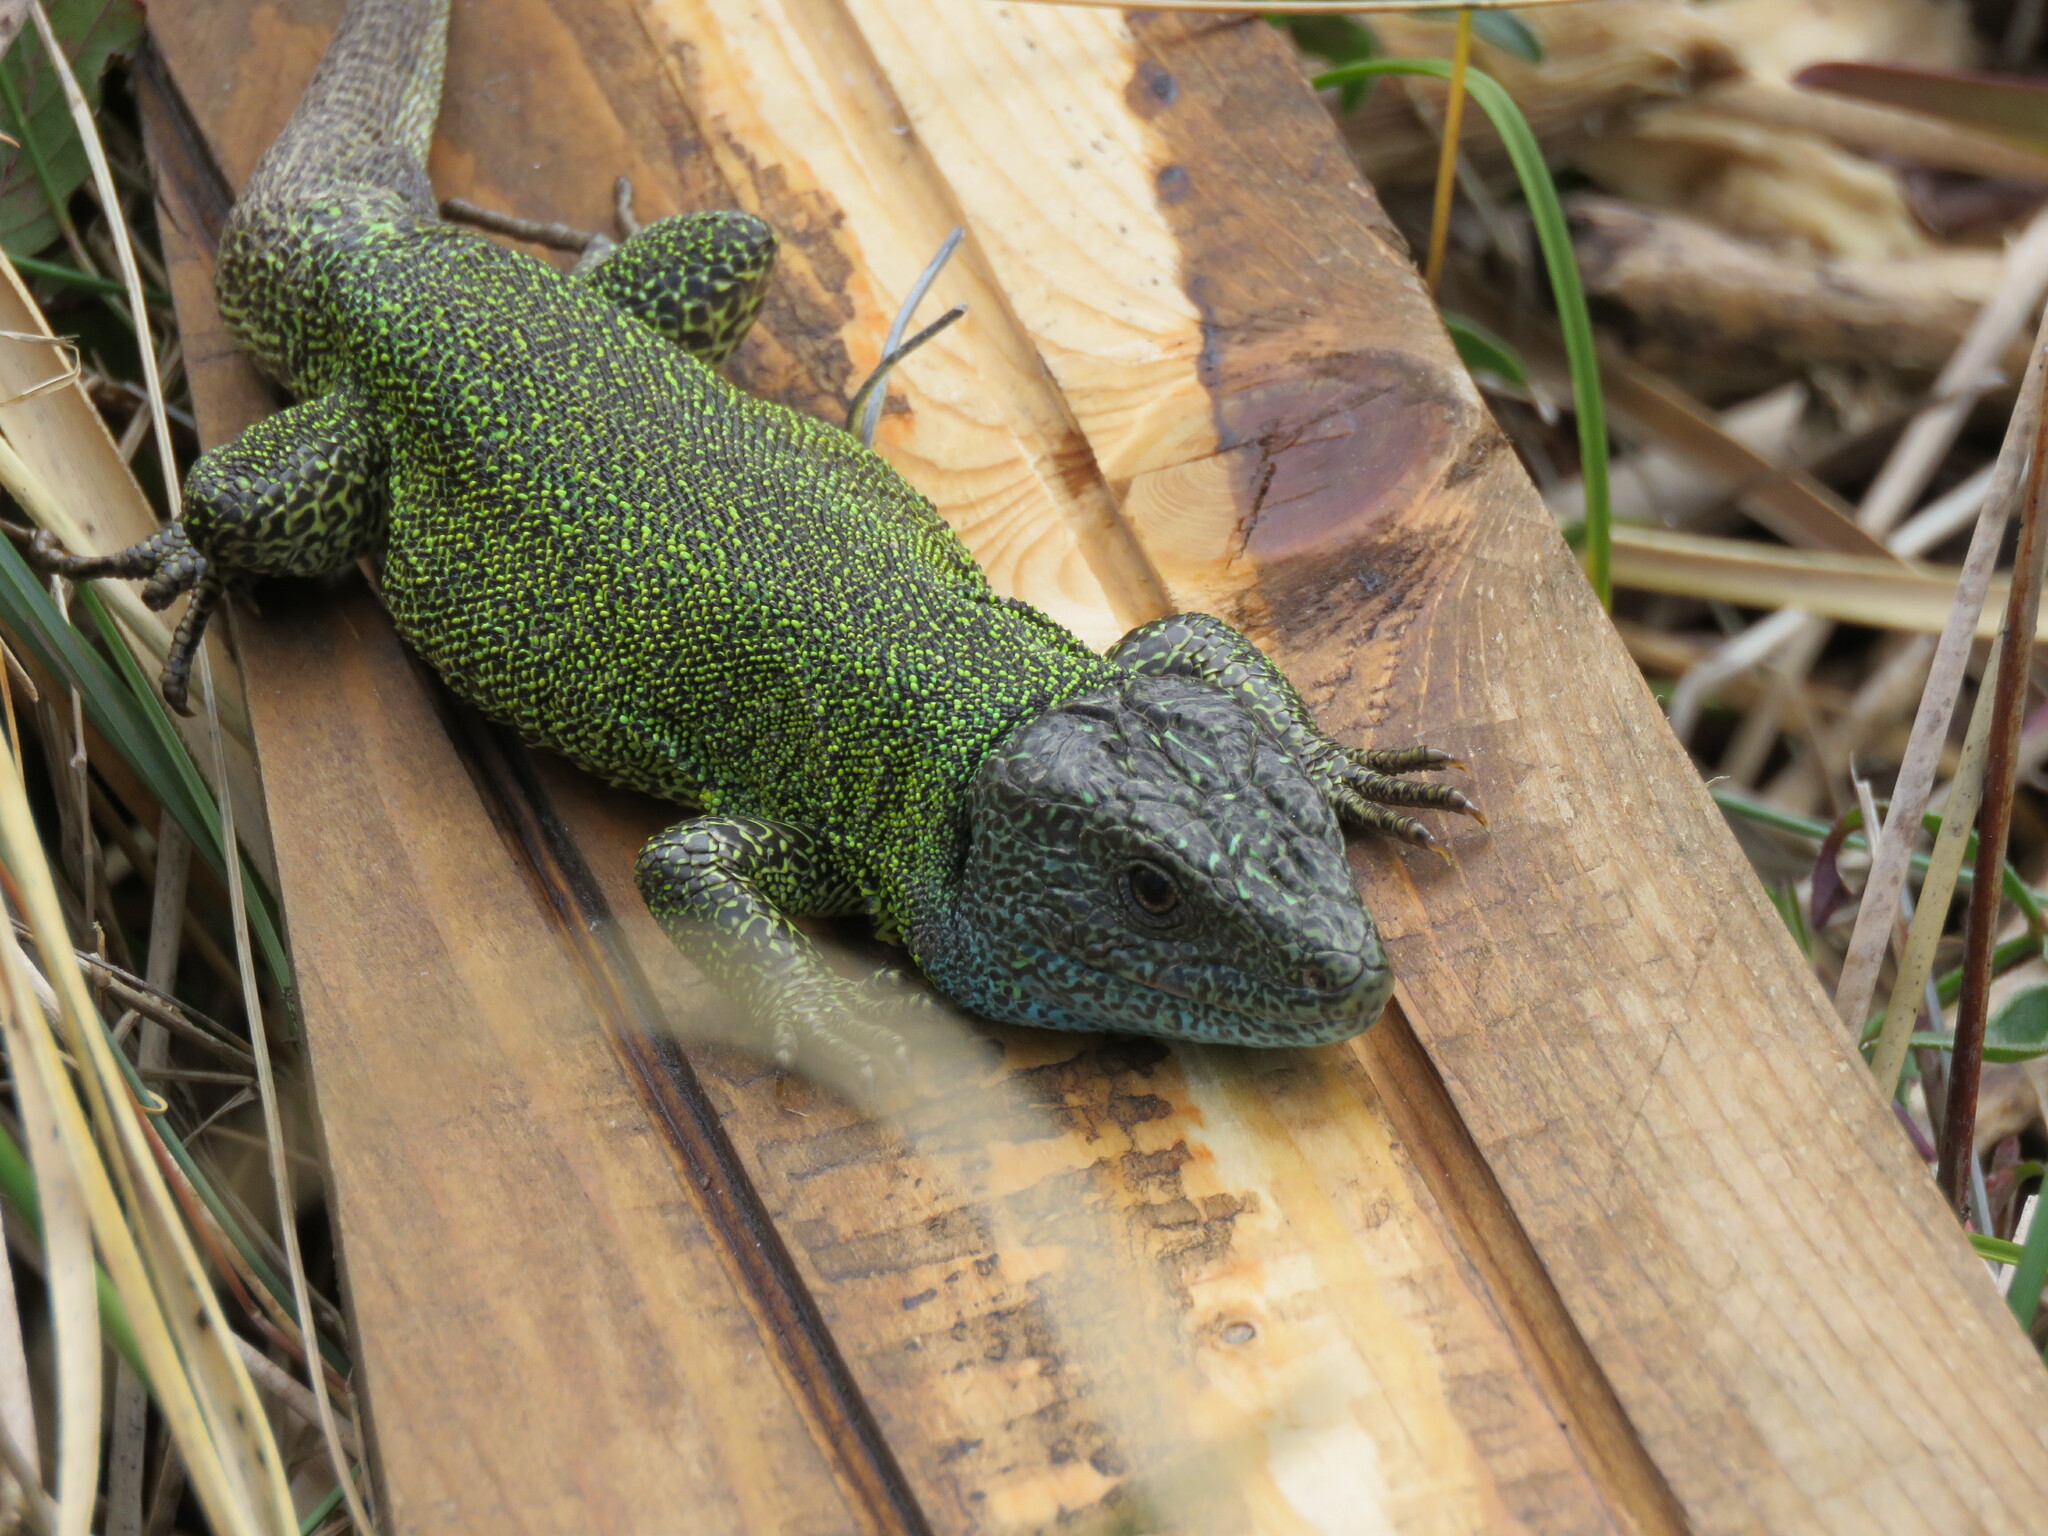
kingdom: Animalia
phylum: Chordata
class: Squamata
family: Lacertidae
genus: Lacerta
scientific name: Lacerta schreiberi
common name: Iberian emerald lizard
